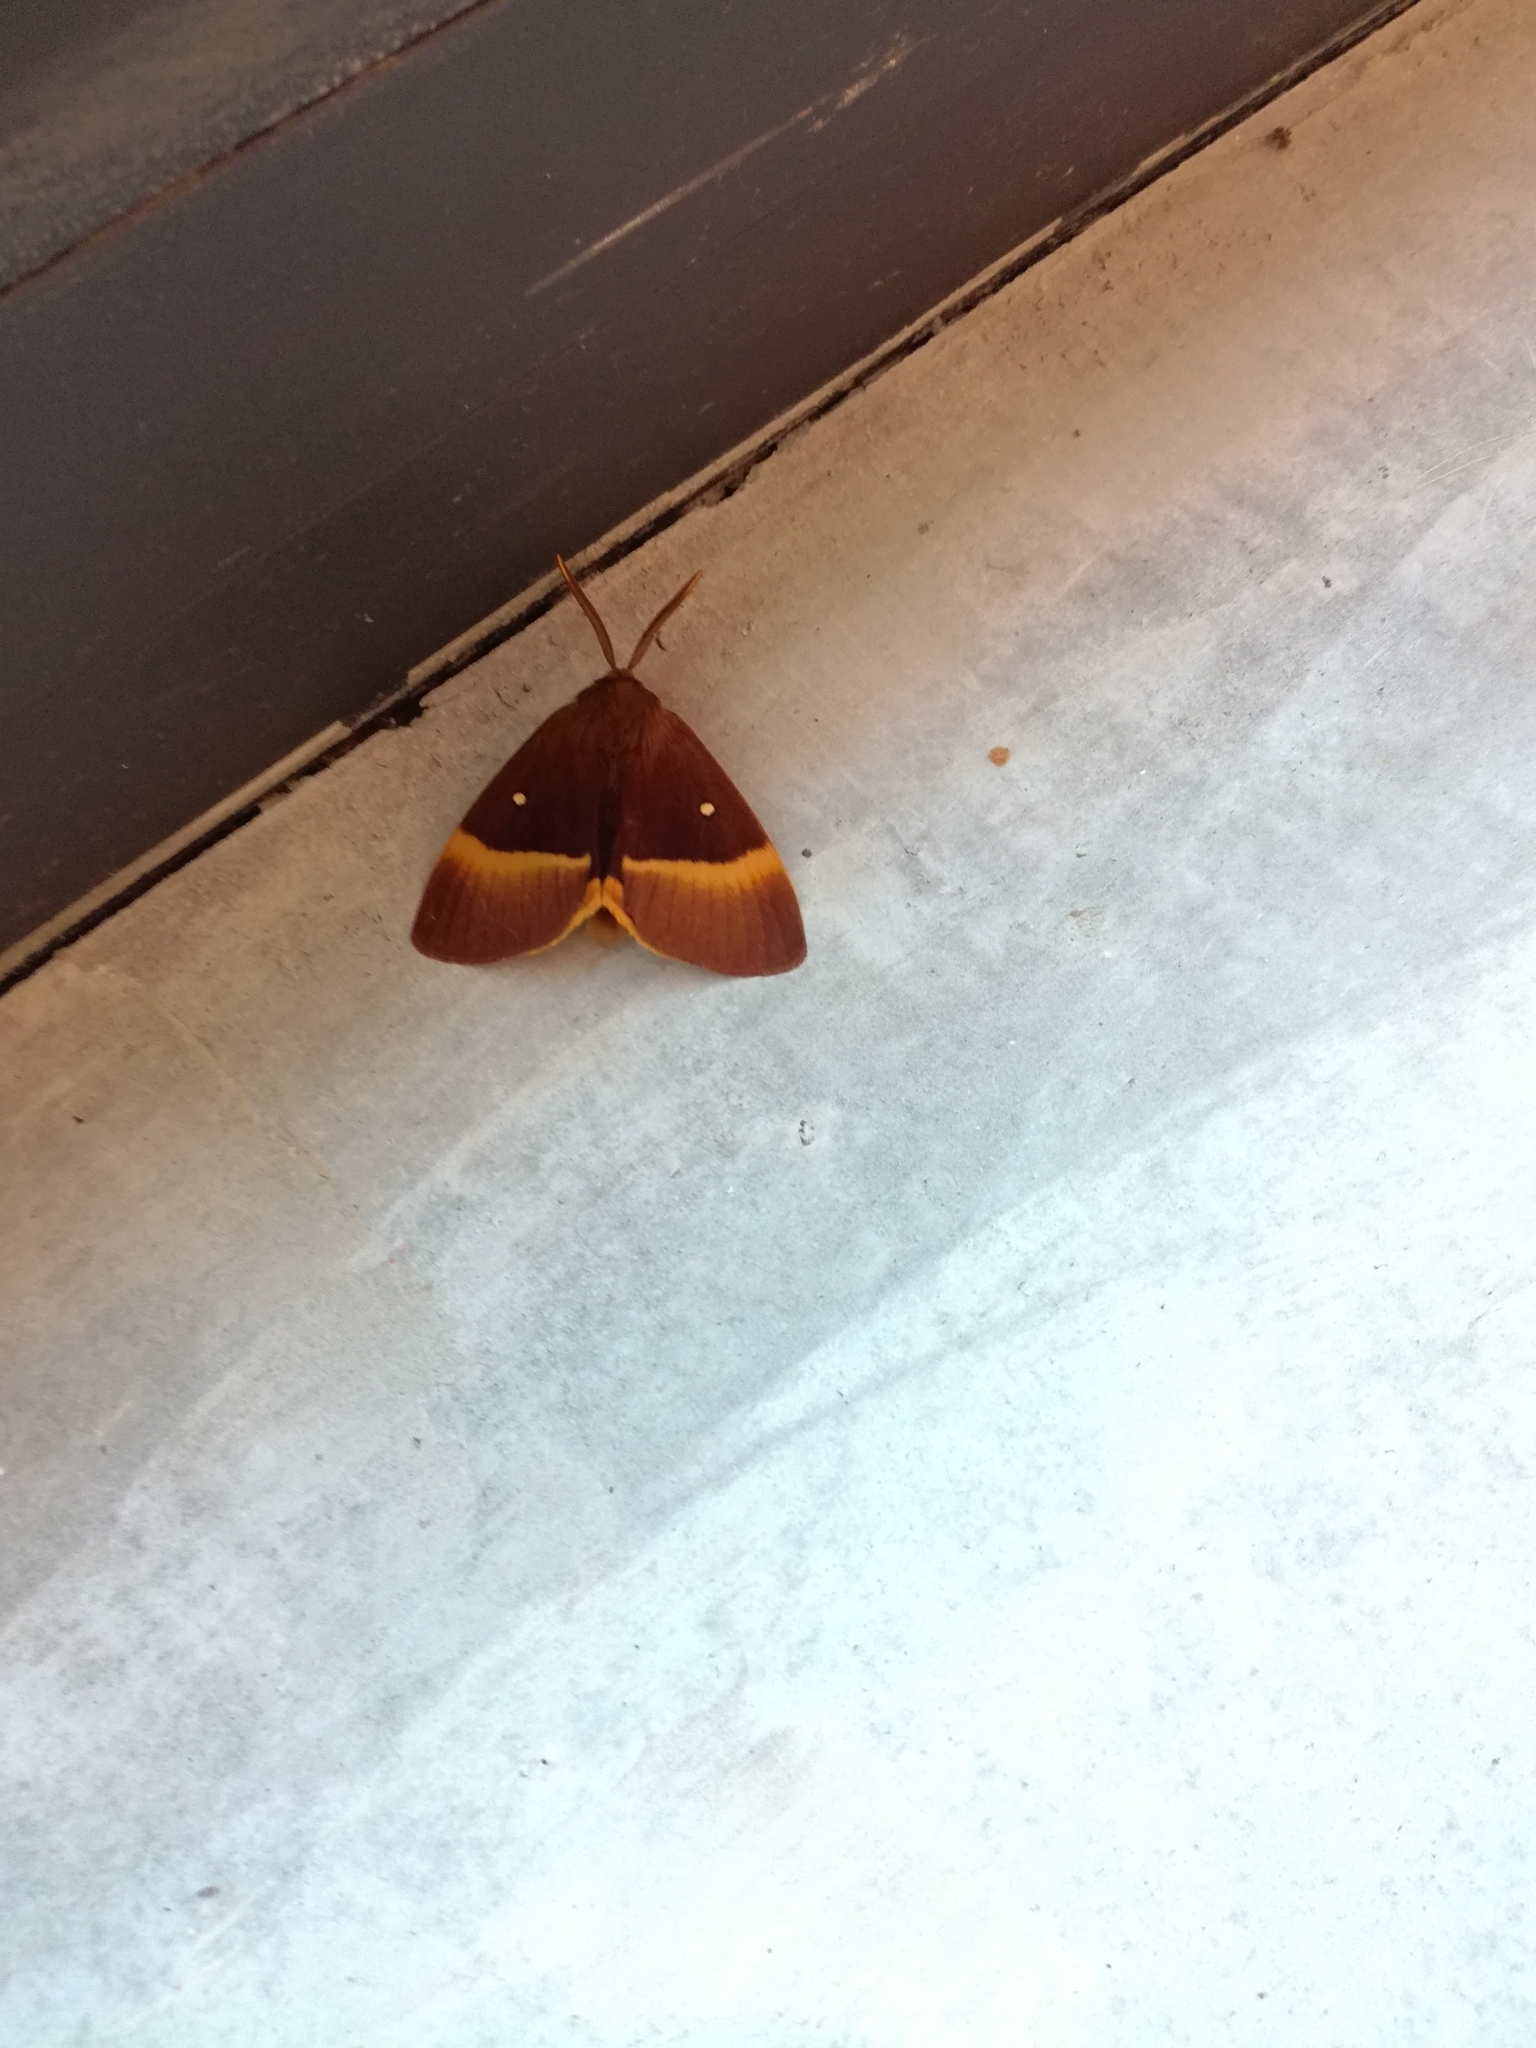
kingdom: Animalia
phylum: Arthropoda
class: Insecta
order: Lepidoptera
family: Lasiocampidae
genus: Lasiocampa
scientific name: Lasiocampa quercus
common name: Oak eggar
